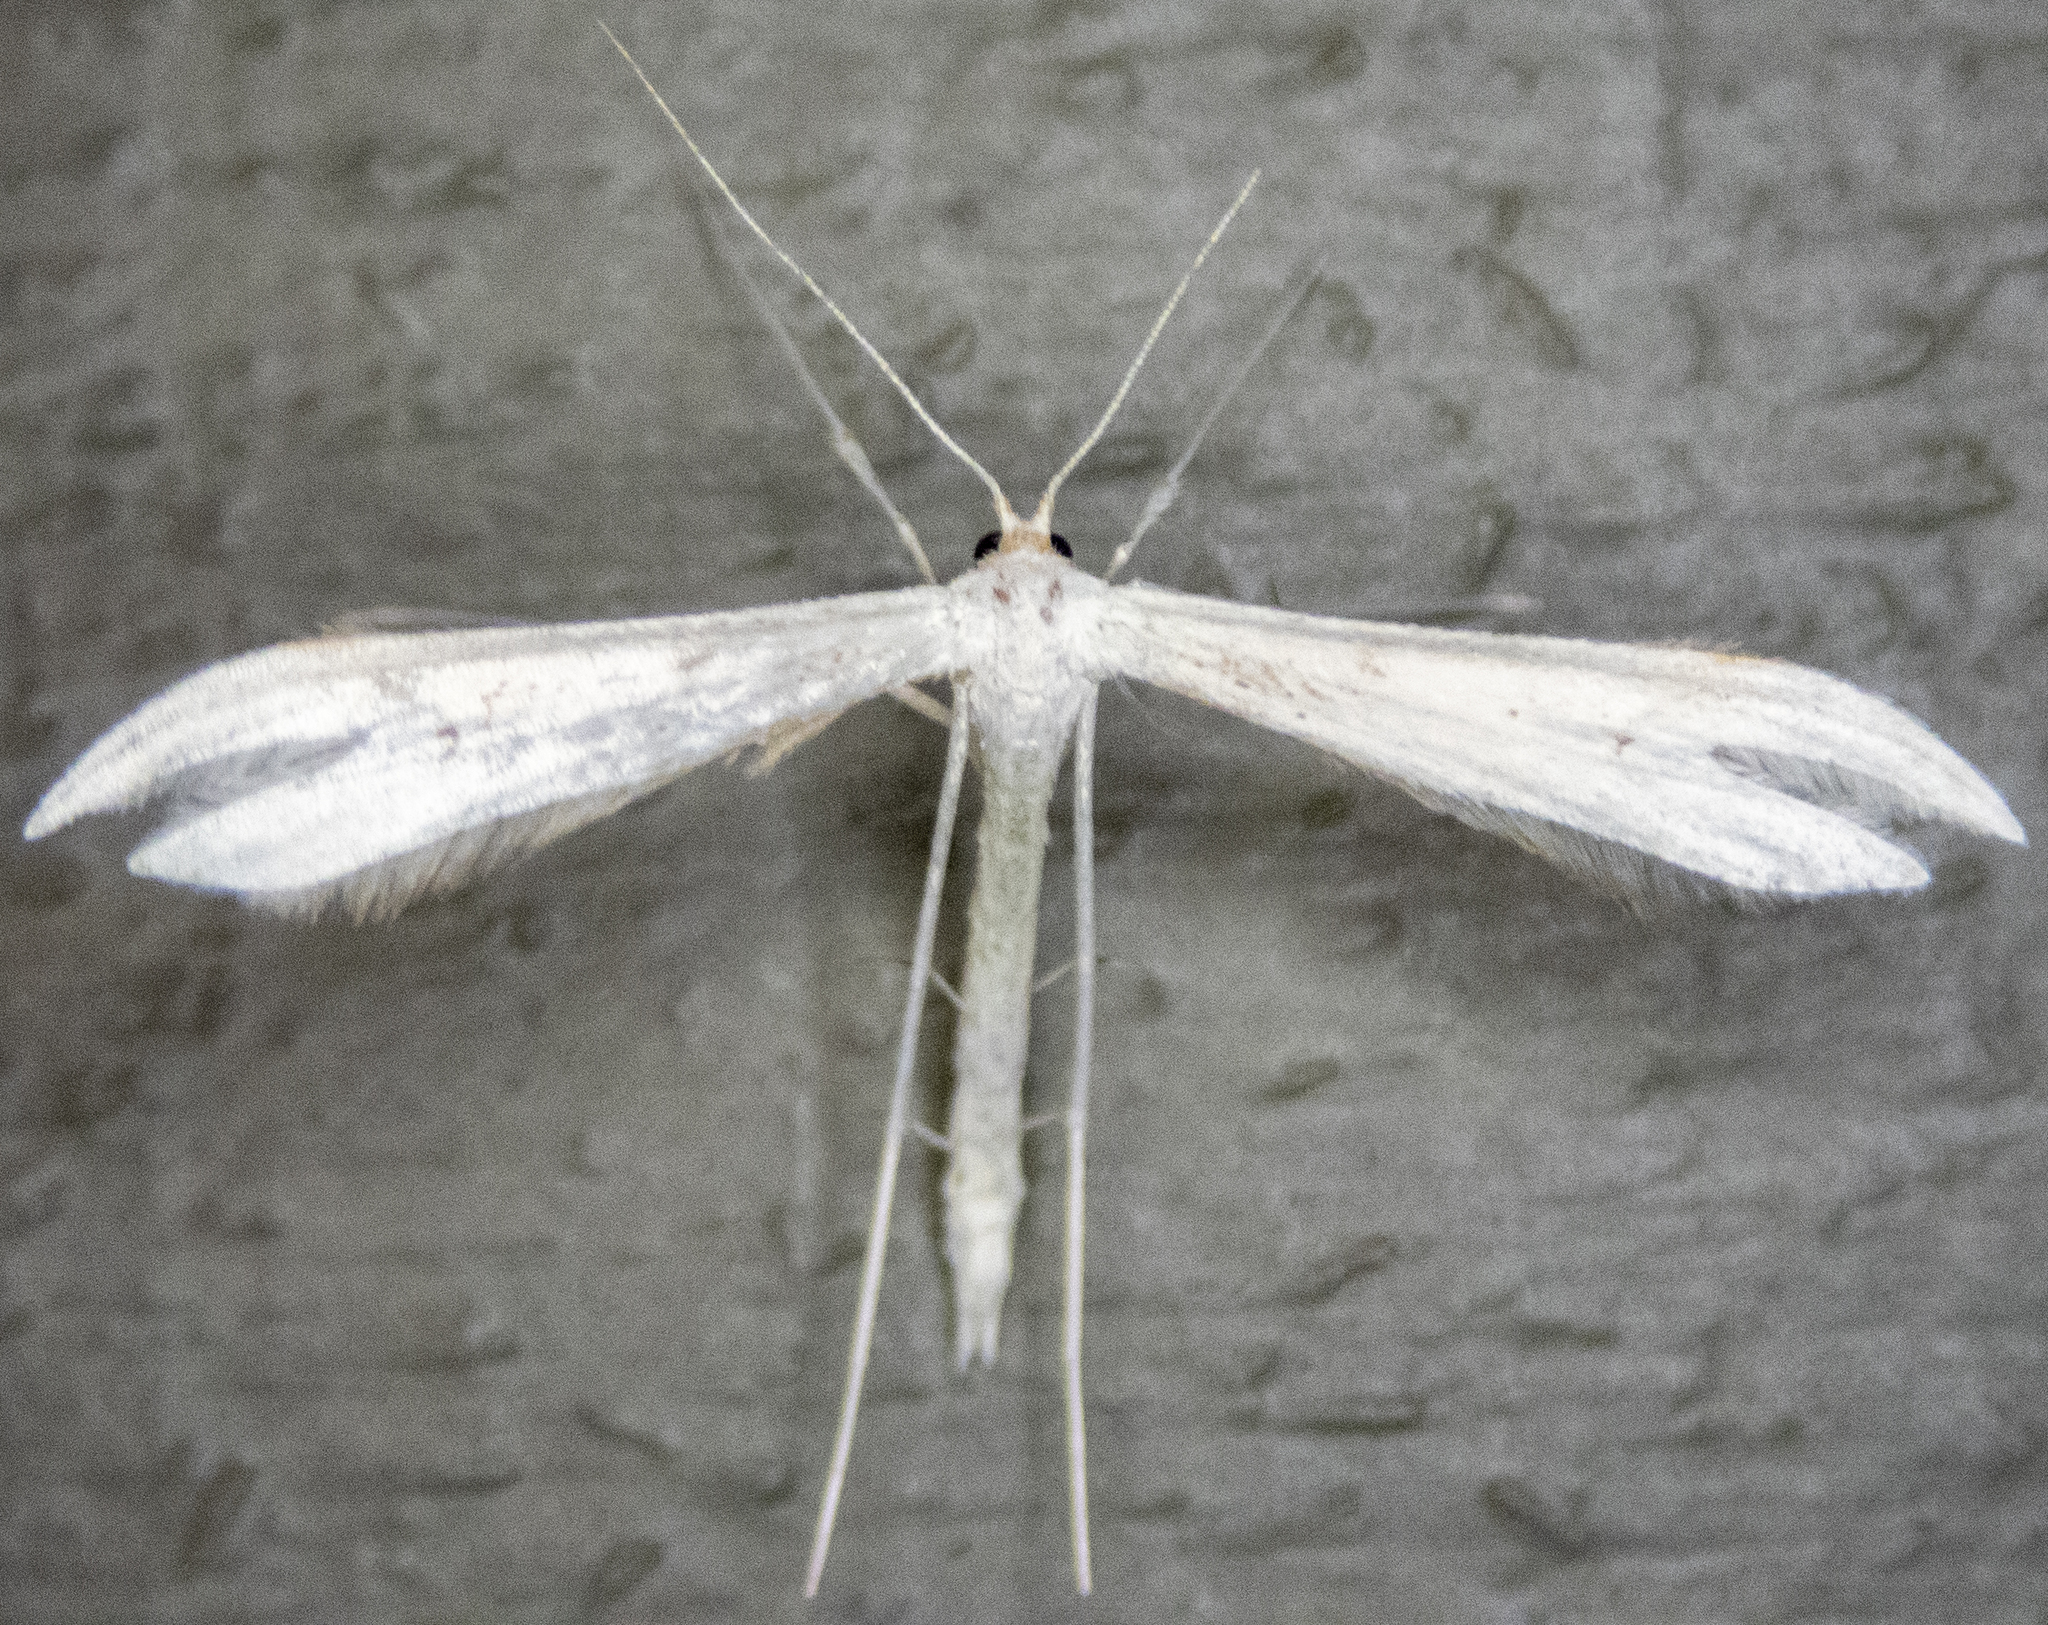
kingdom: Animalia
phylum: Arthropoda
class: Insecta
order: Lepidoptera
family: Pterophoridae
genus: Hellinsia
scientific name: Hellinsia elliottii
